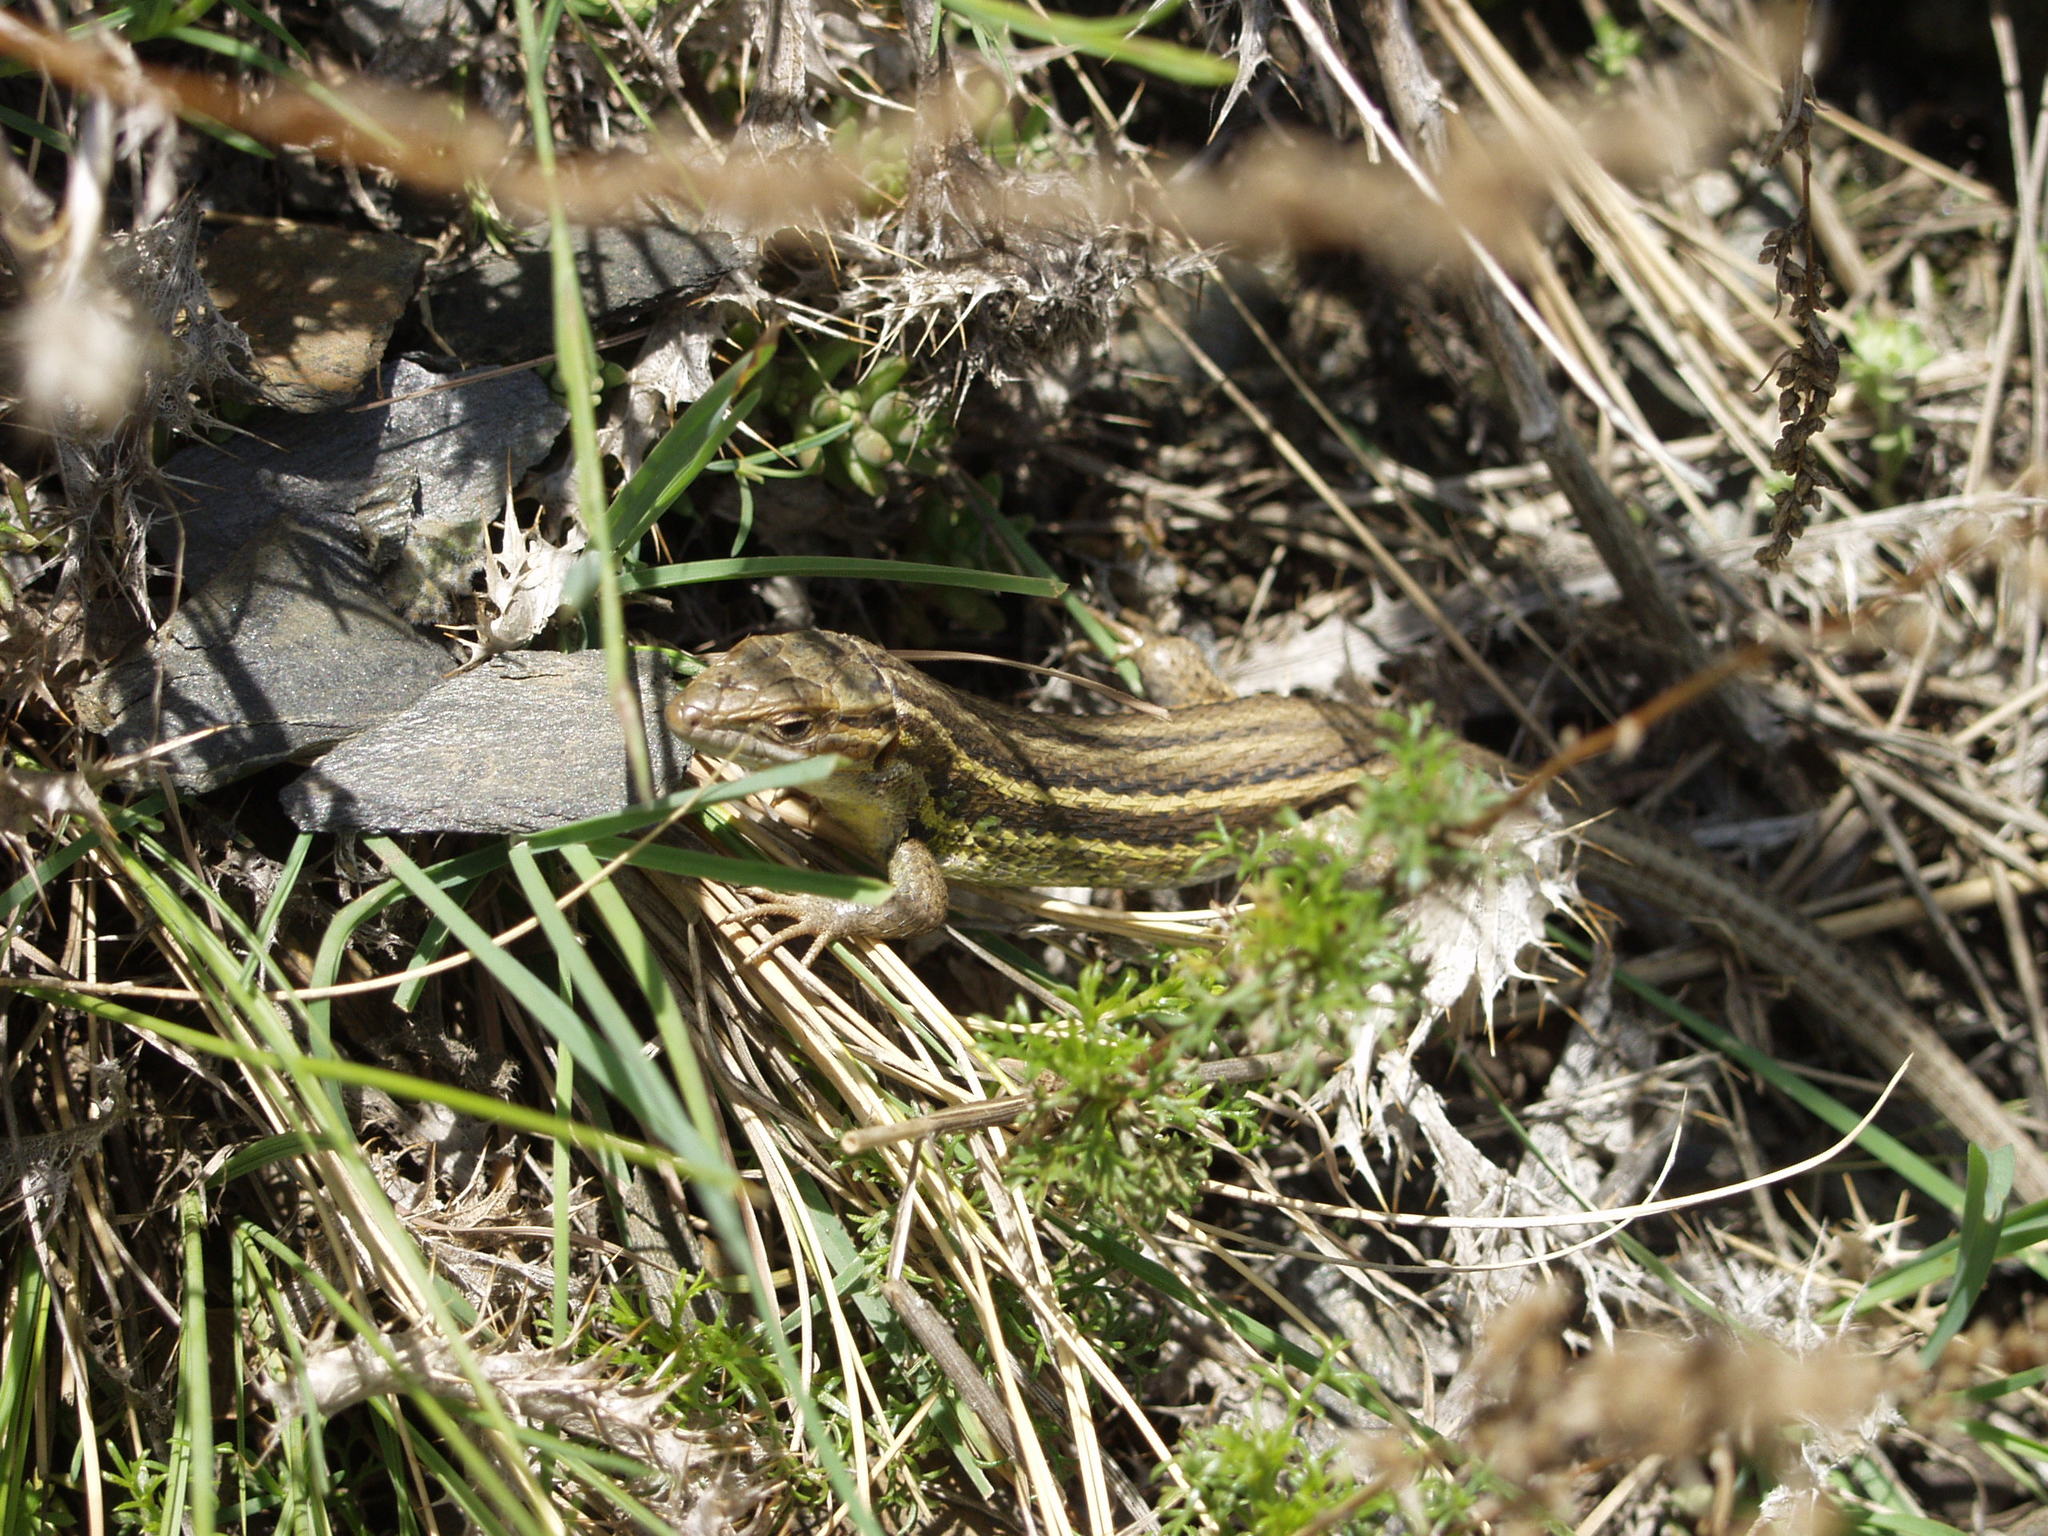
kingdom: Animalia
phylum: Chordata
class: Squamata
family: Lacertidae
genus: Psammodromus
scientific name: Psammodromus algirus
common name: Algerian psammodromus
